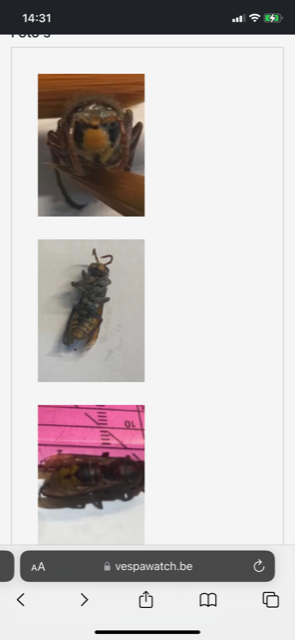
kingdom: Animalia
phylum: Arthropoda
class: Insecta
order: Hymenoptera
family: Vespidae
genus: Vespa
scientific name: Vespa crabro
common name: Hornet
